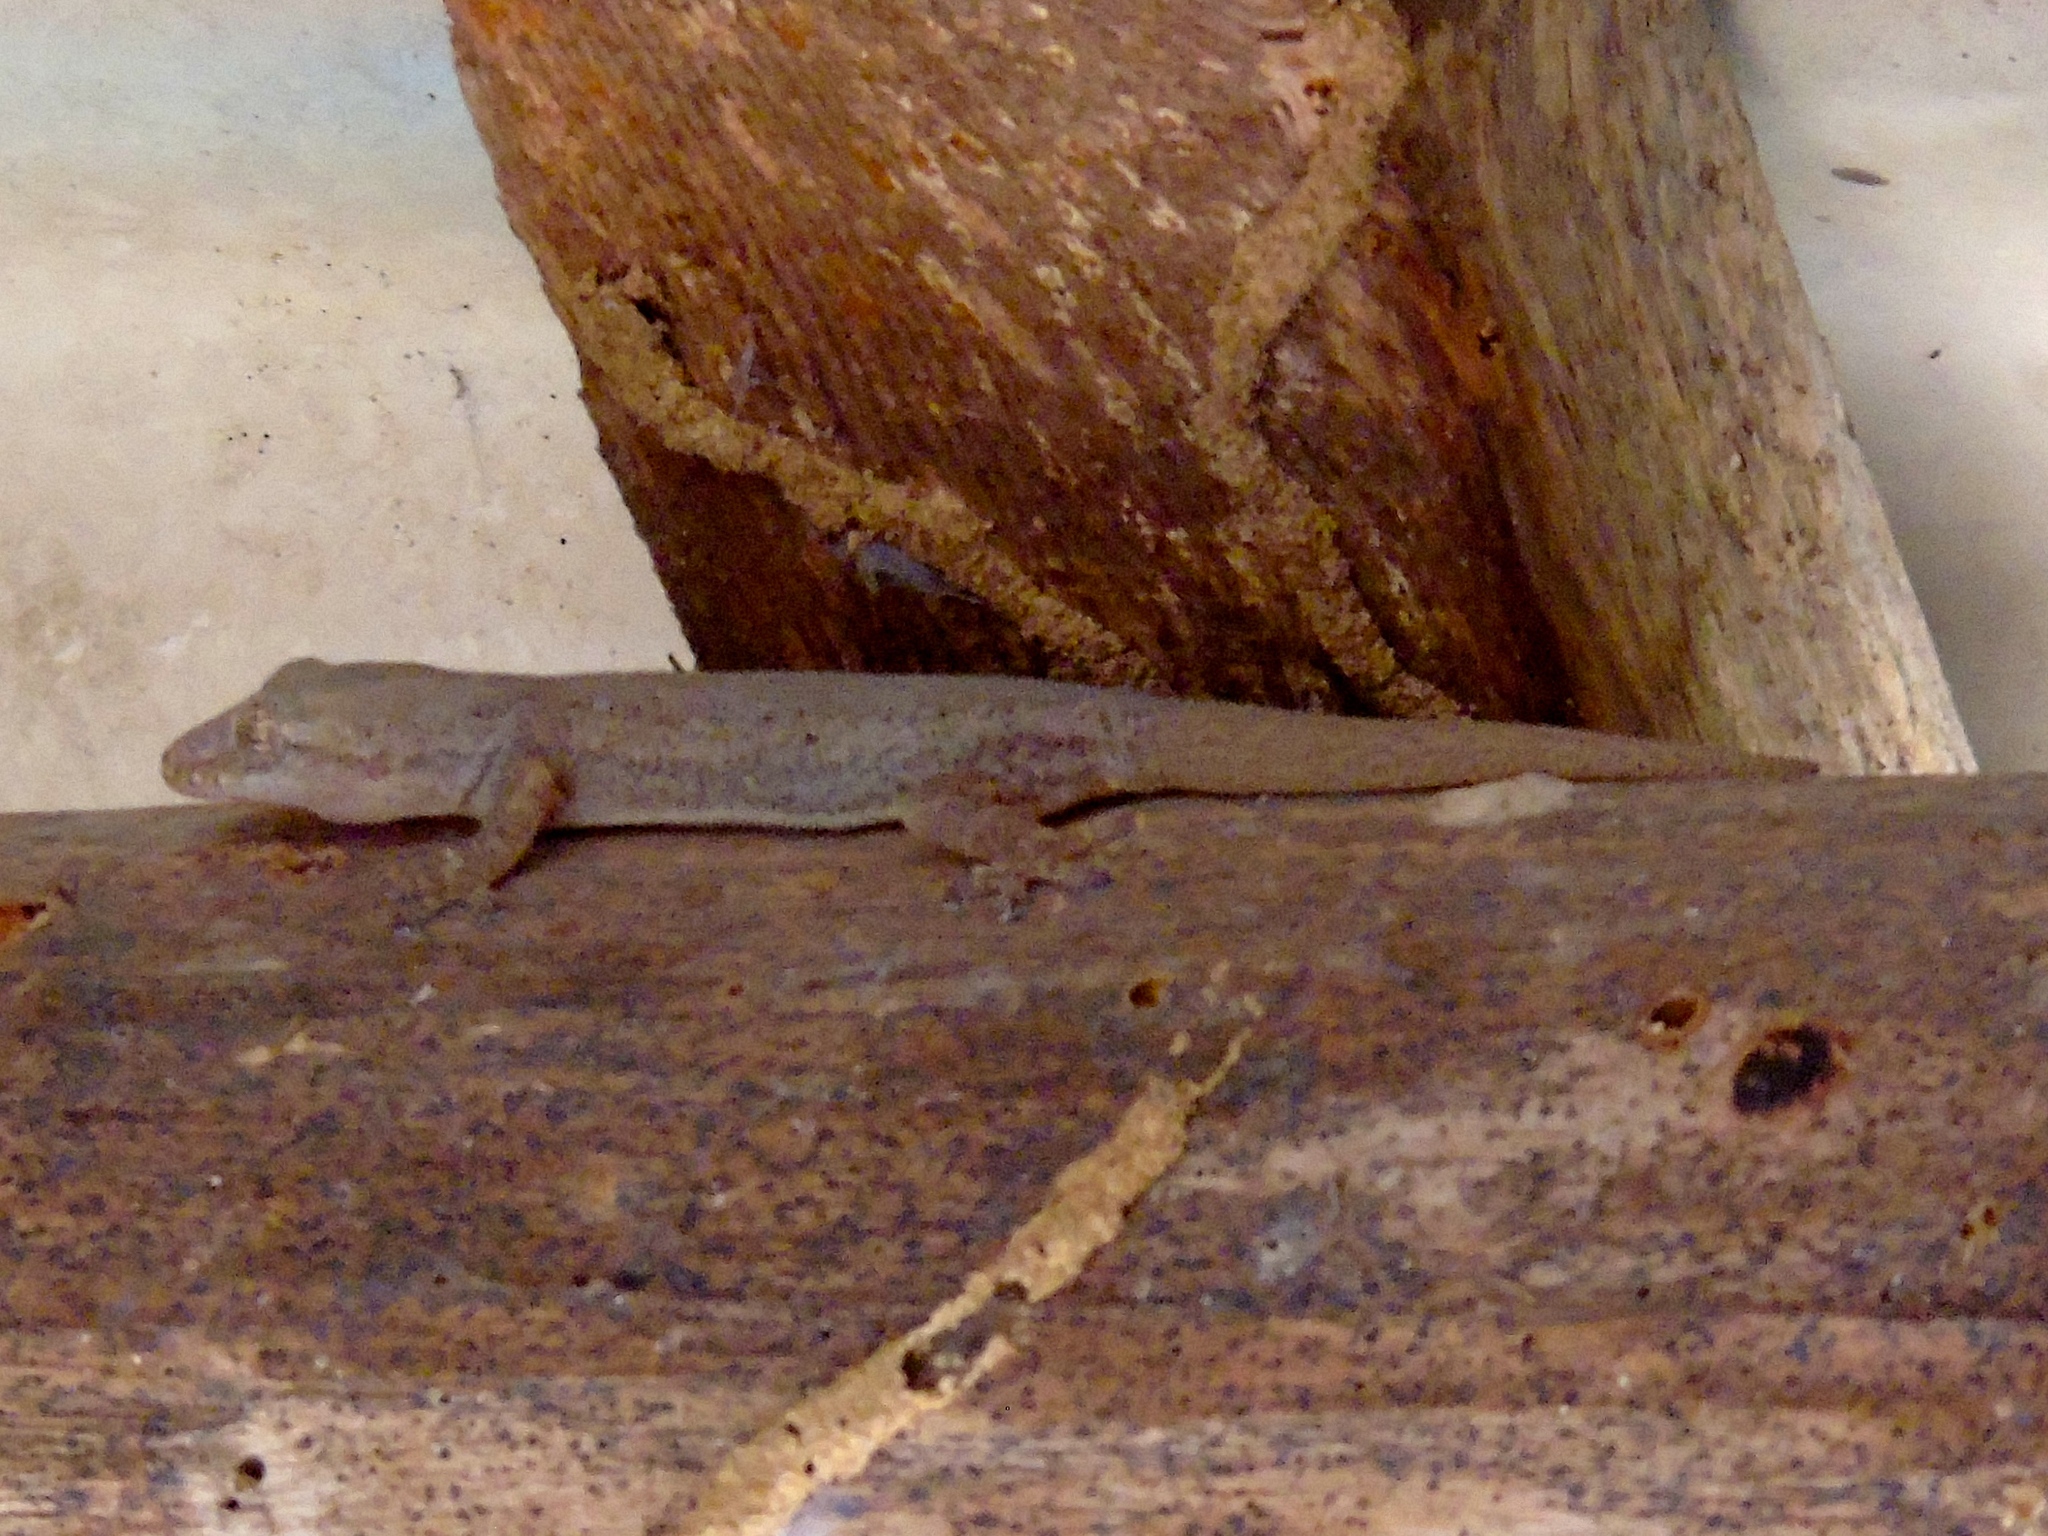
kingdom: Animalia
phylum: Chordata
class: Squamata
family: Gekkonidae
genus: Hemidactylus
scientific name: Hemidactylus frenatus
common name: Common house gecko
